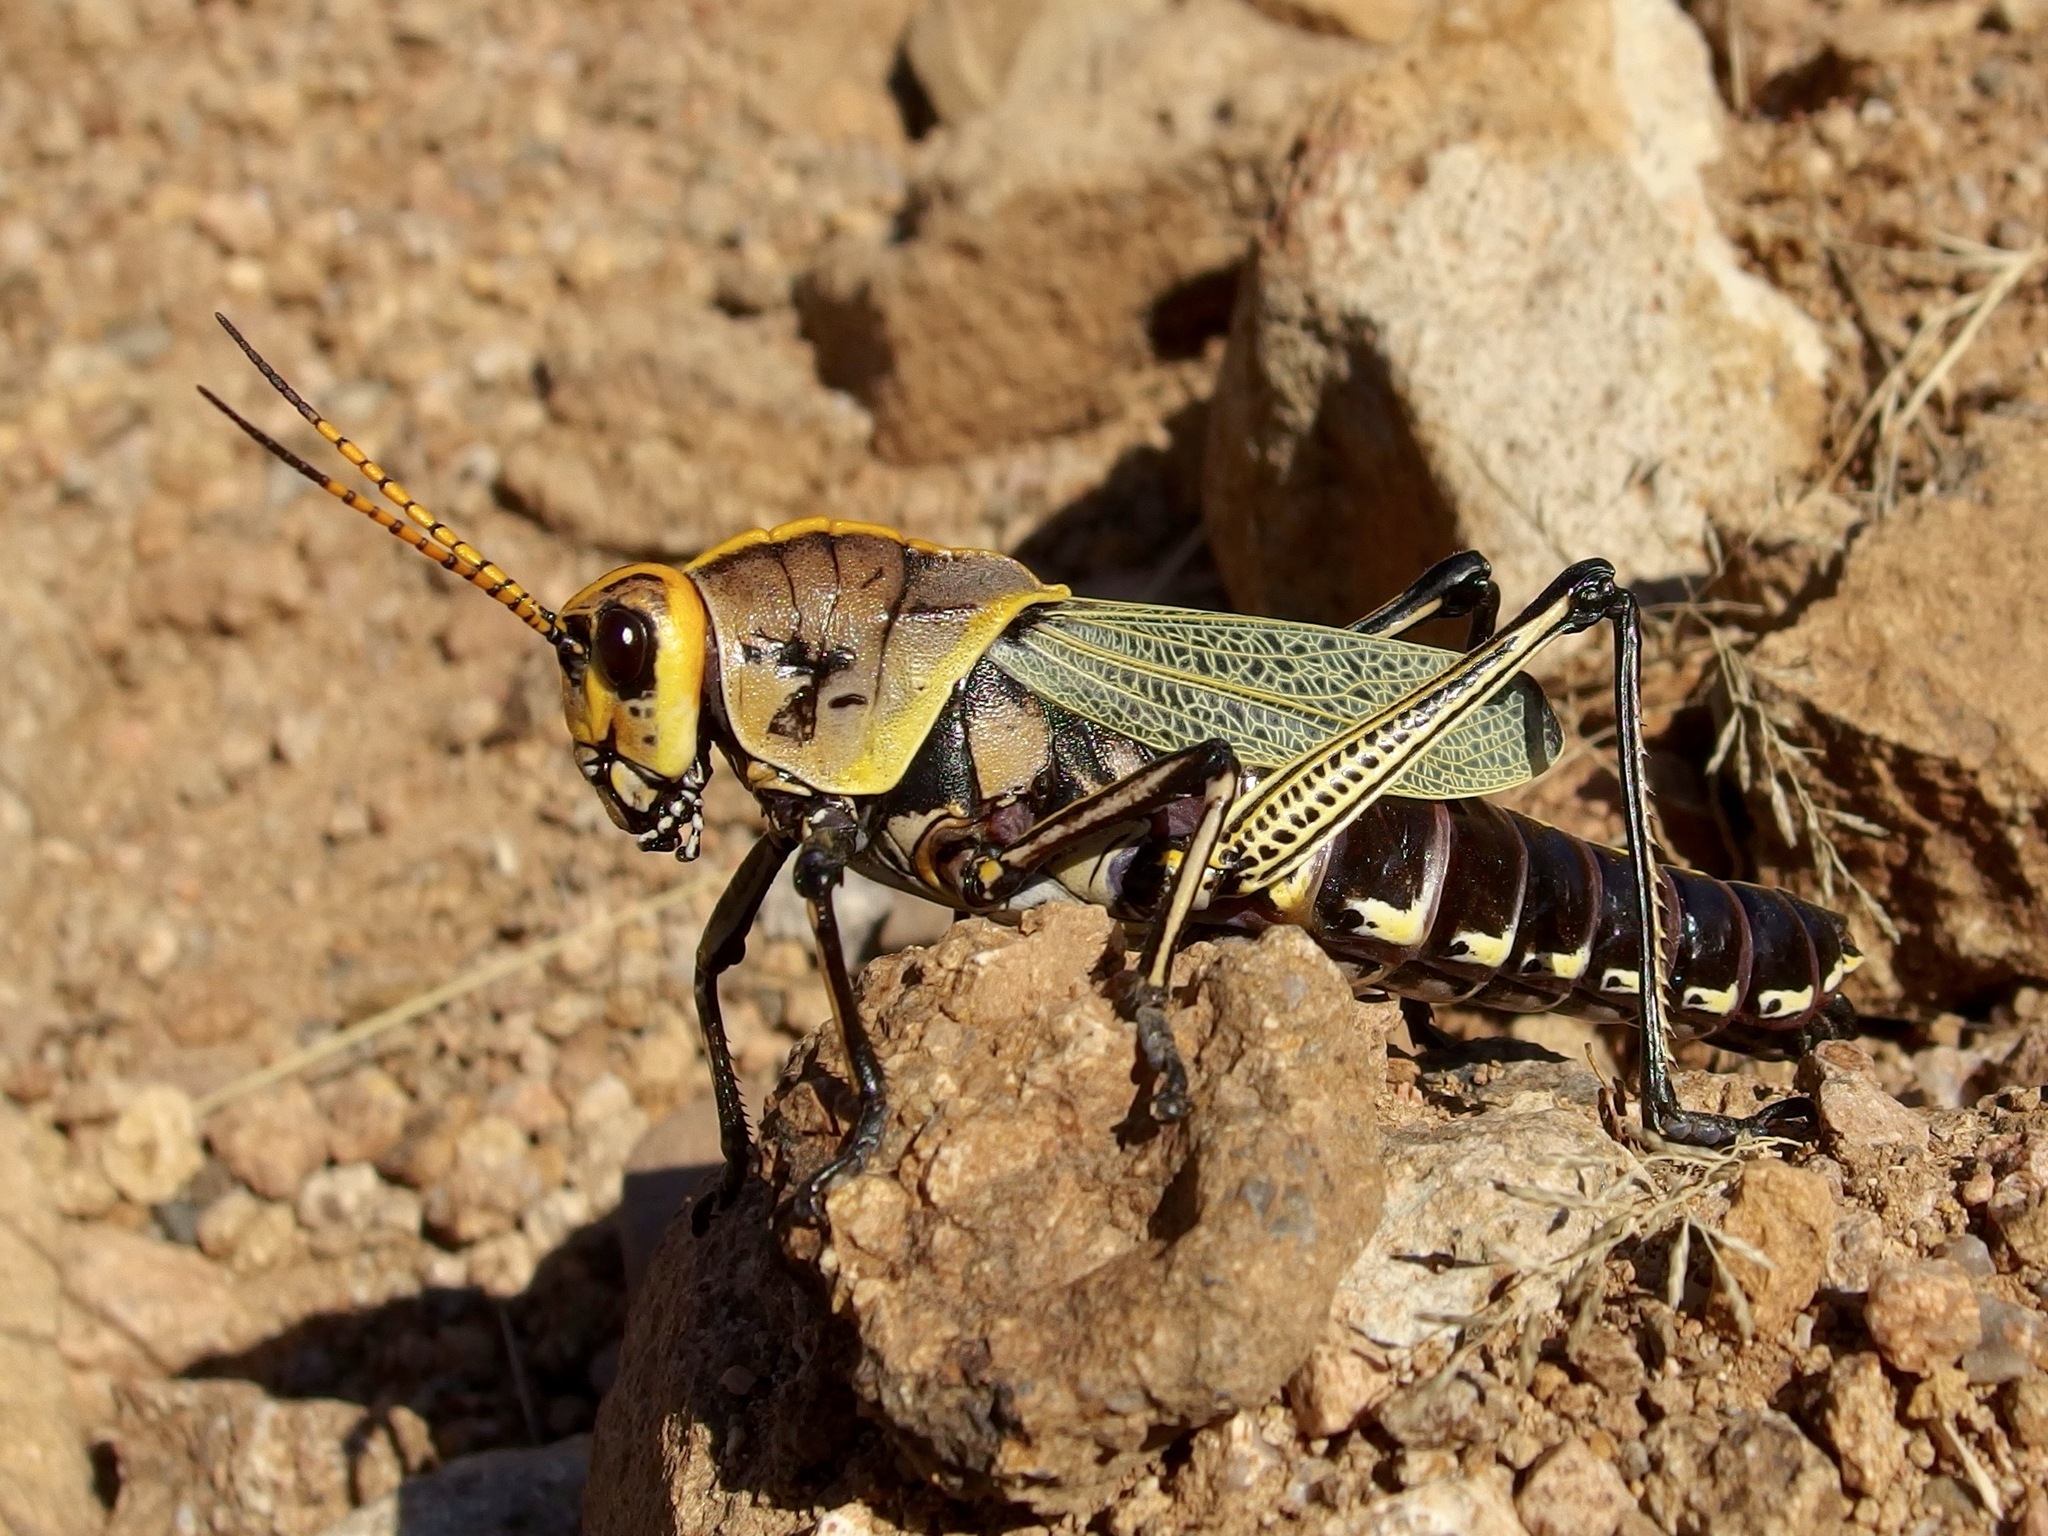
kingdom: Animalia
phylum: Arthropoda
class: Insecta
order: Orthoptera
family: Romaleidae
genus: Romalea
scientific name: Romalea
